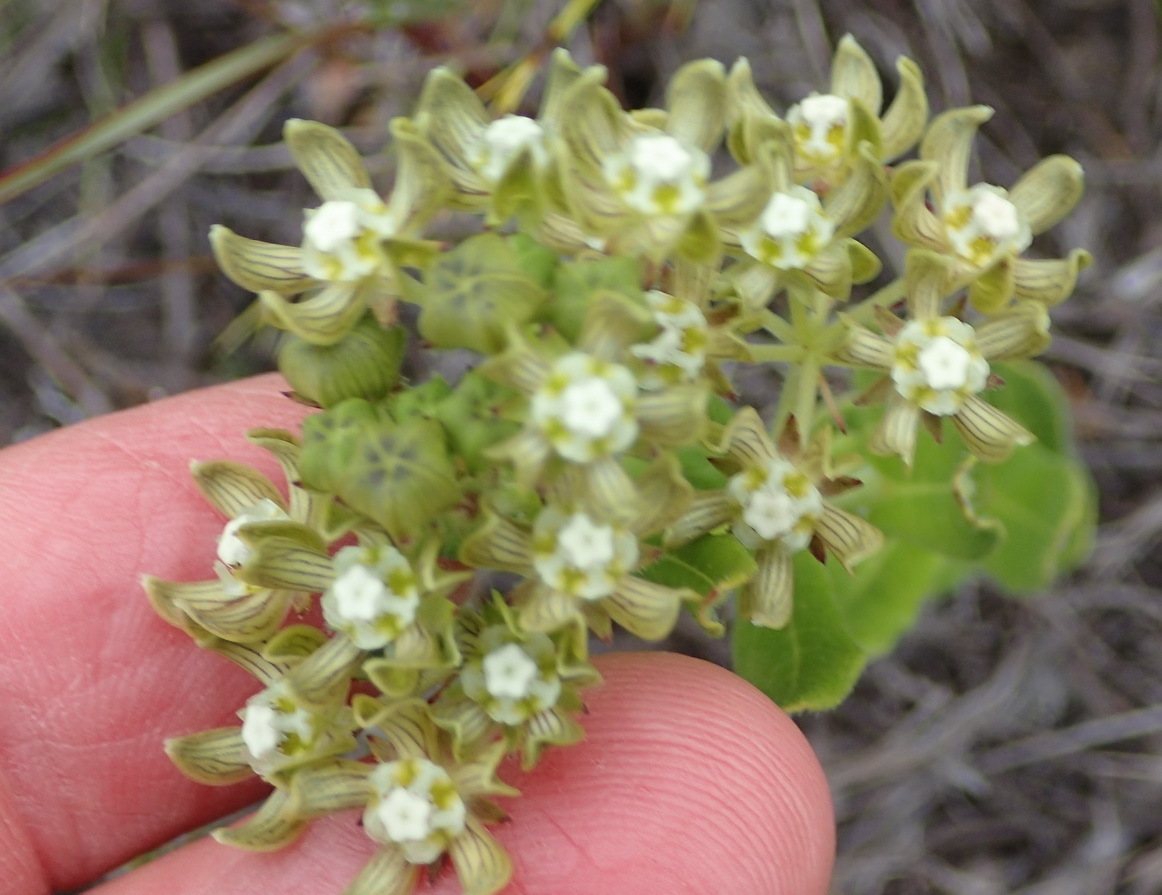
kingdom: Plantae
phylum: Tracheophyta
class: Magnoliopsida
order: Gentianales
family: Apocynaceae
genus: Schizoglossum
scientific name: Schizoglossum cordifolium
